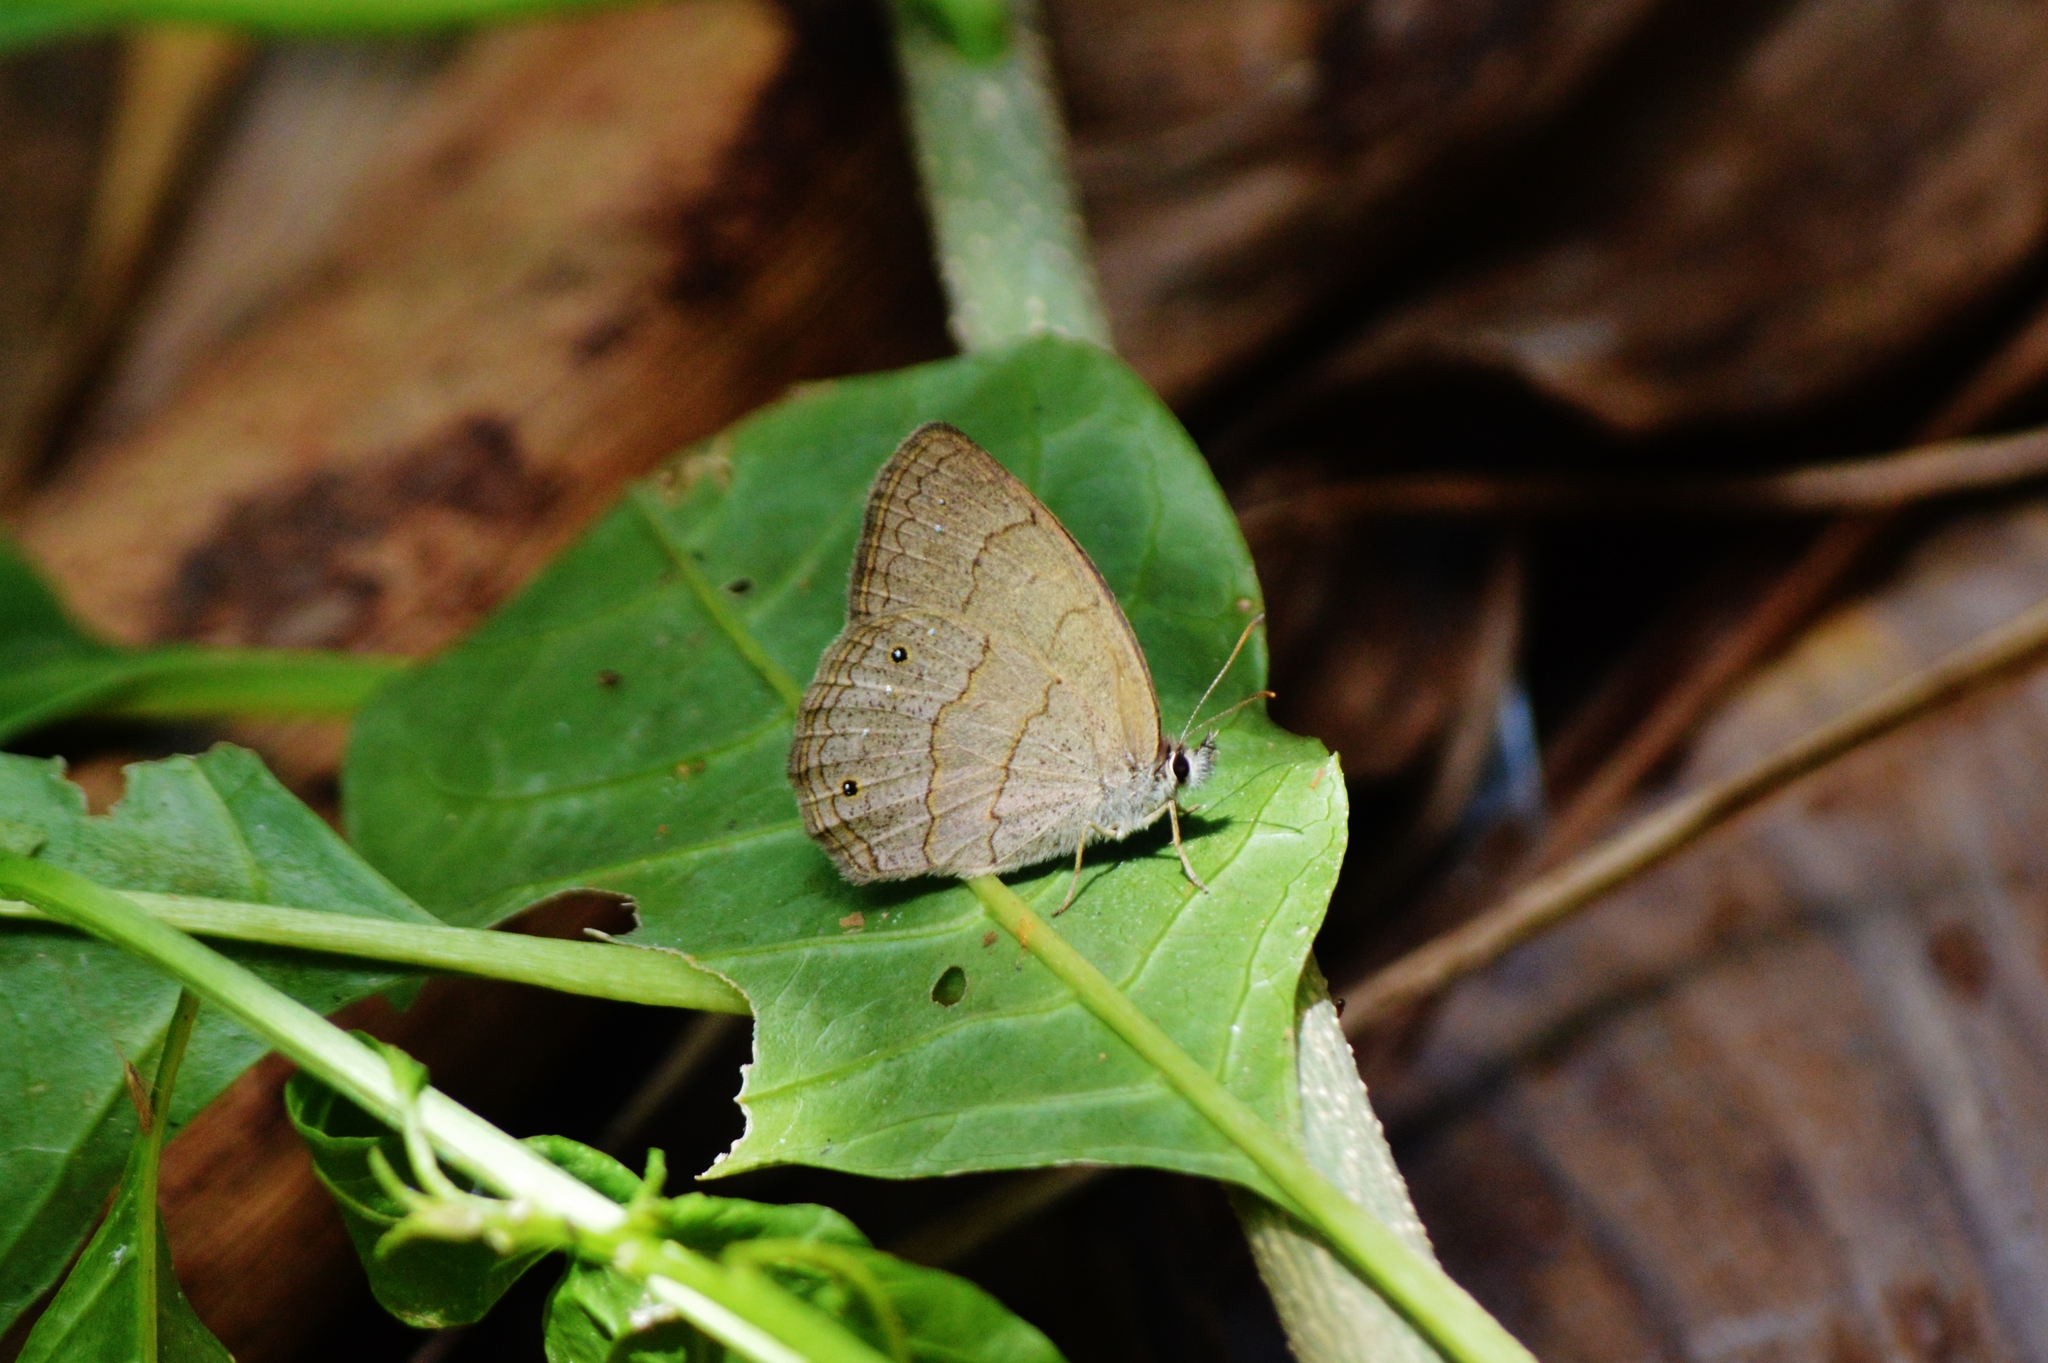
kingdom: Animalia
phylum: Arthropoda
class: Insecta
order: Lepidoptera
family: Nymphalidae
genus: Euptychia
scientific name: Euptychia Cissia eous
